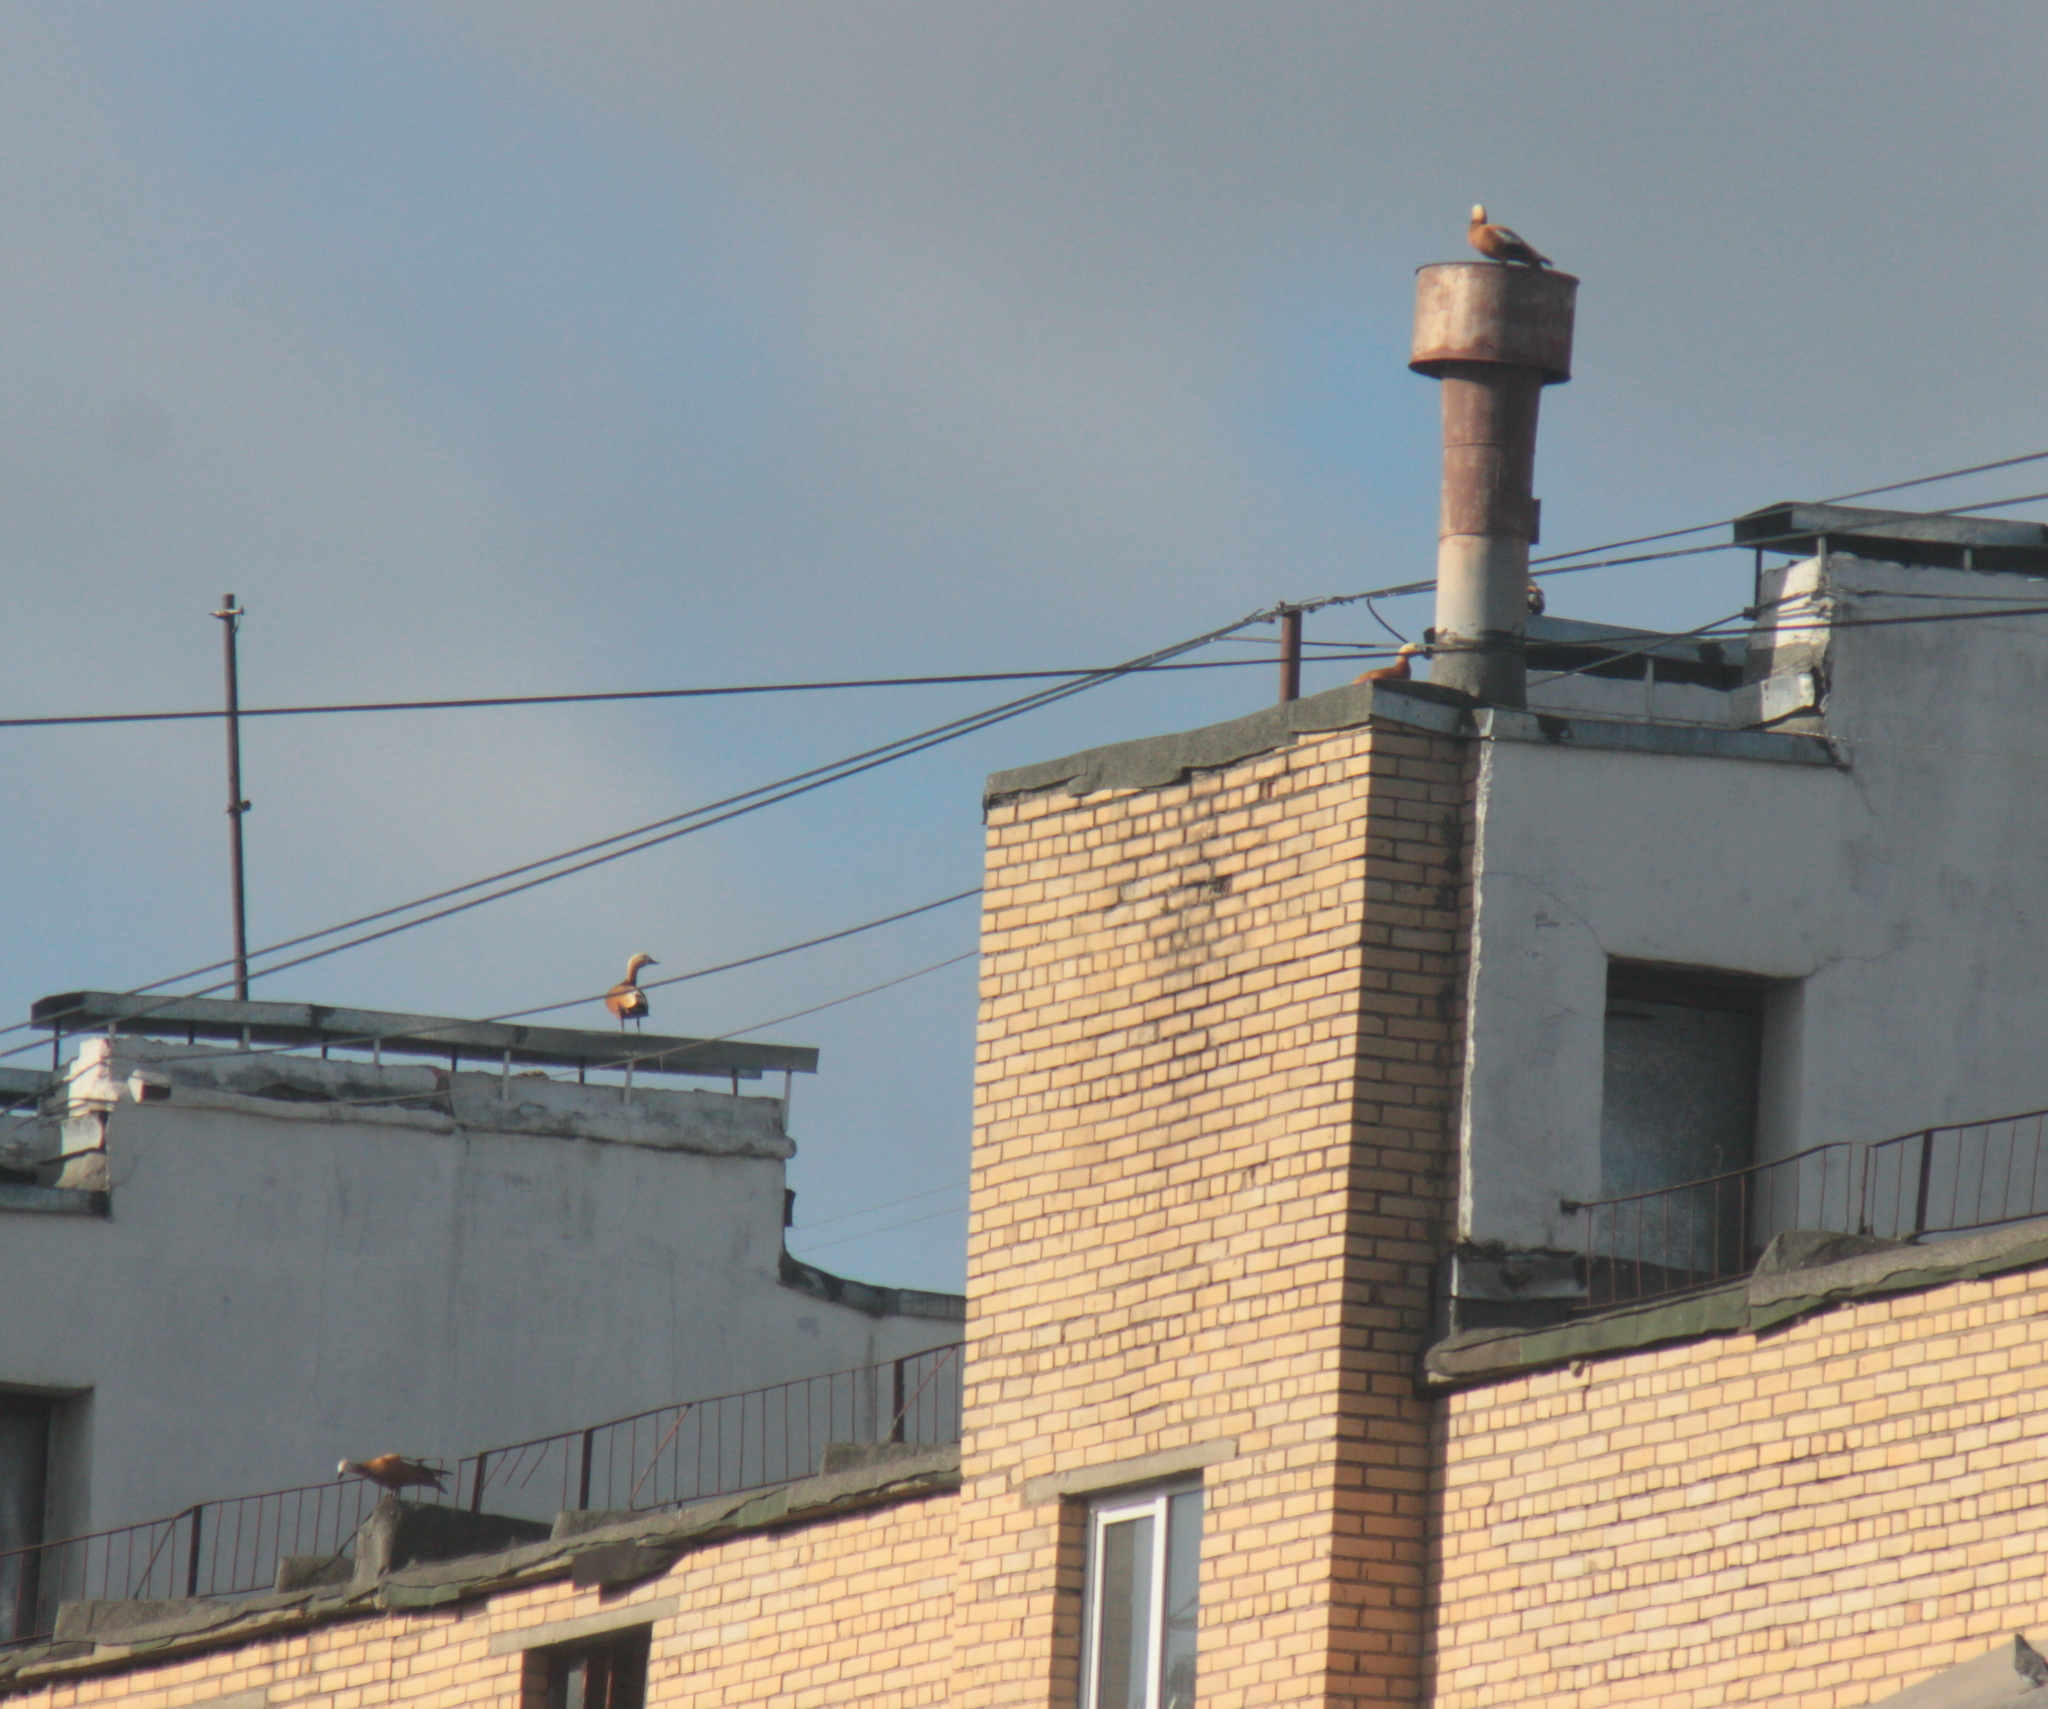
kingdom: Animalia
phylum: Chordata
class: Aves
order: Anseriformes
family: Anatidae
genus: Tadorna
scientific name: Tadorna ferruginea
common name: Ruddy shelduck
